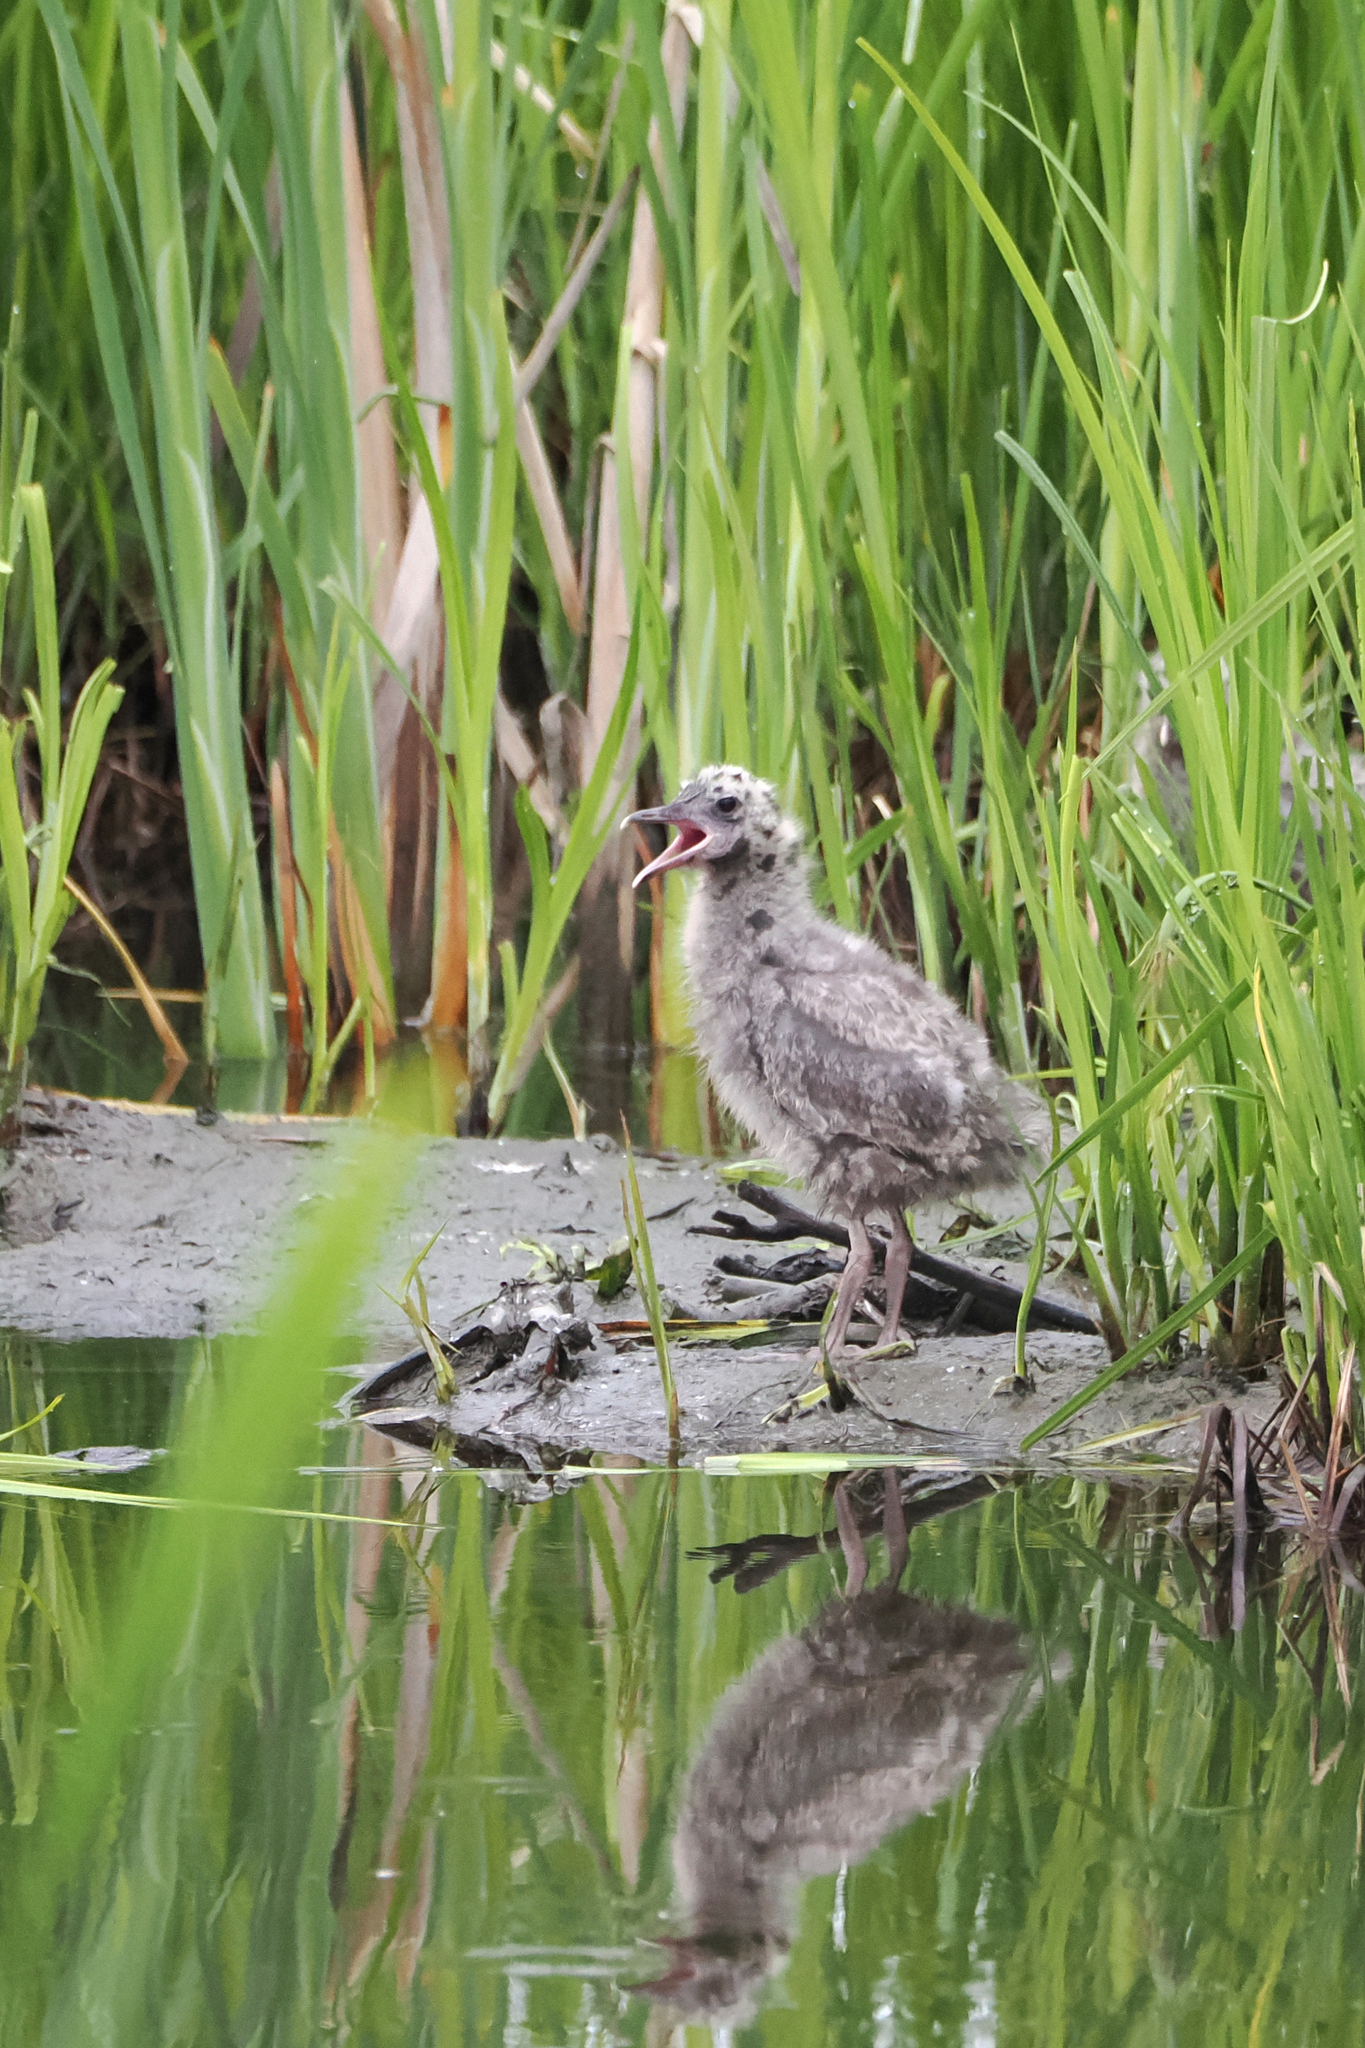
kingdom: Animalia
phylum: Chordata
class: Aves
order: Charadriiformes
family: Laridae
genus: Larus
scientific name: Larus brachyrhynchus
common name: Short-billed gull
